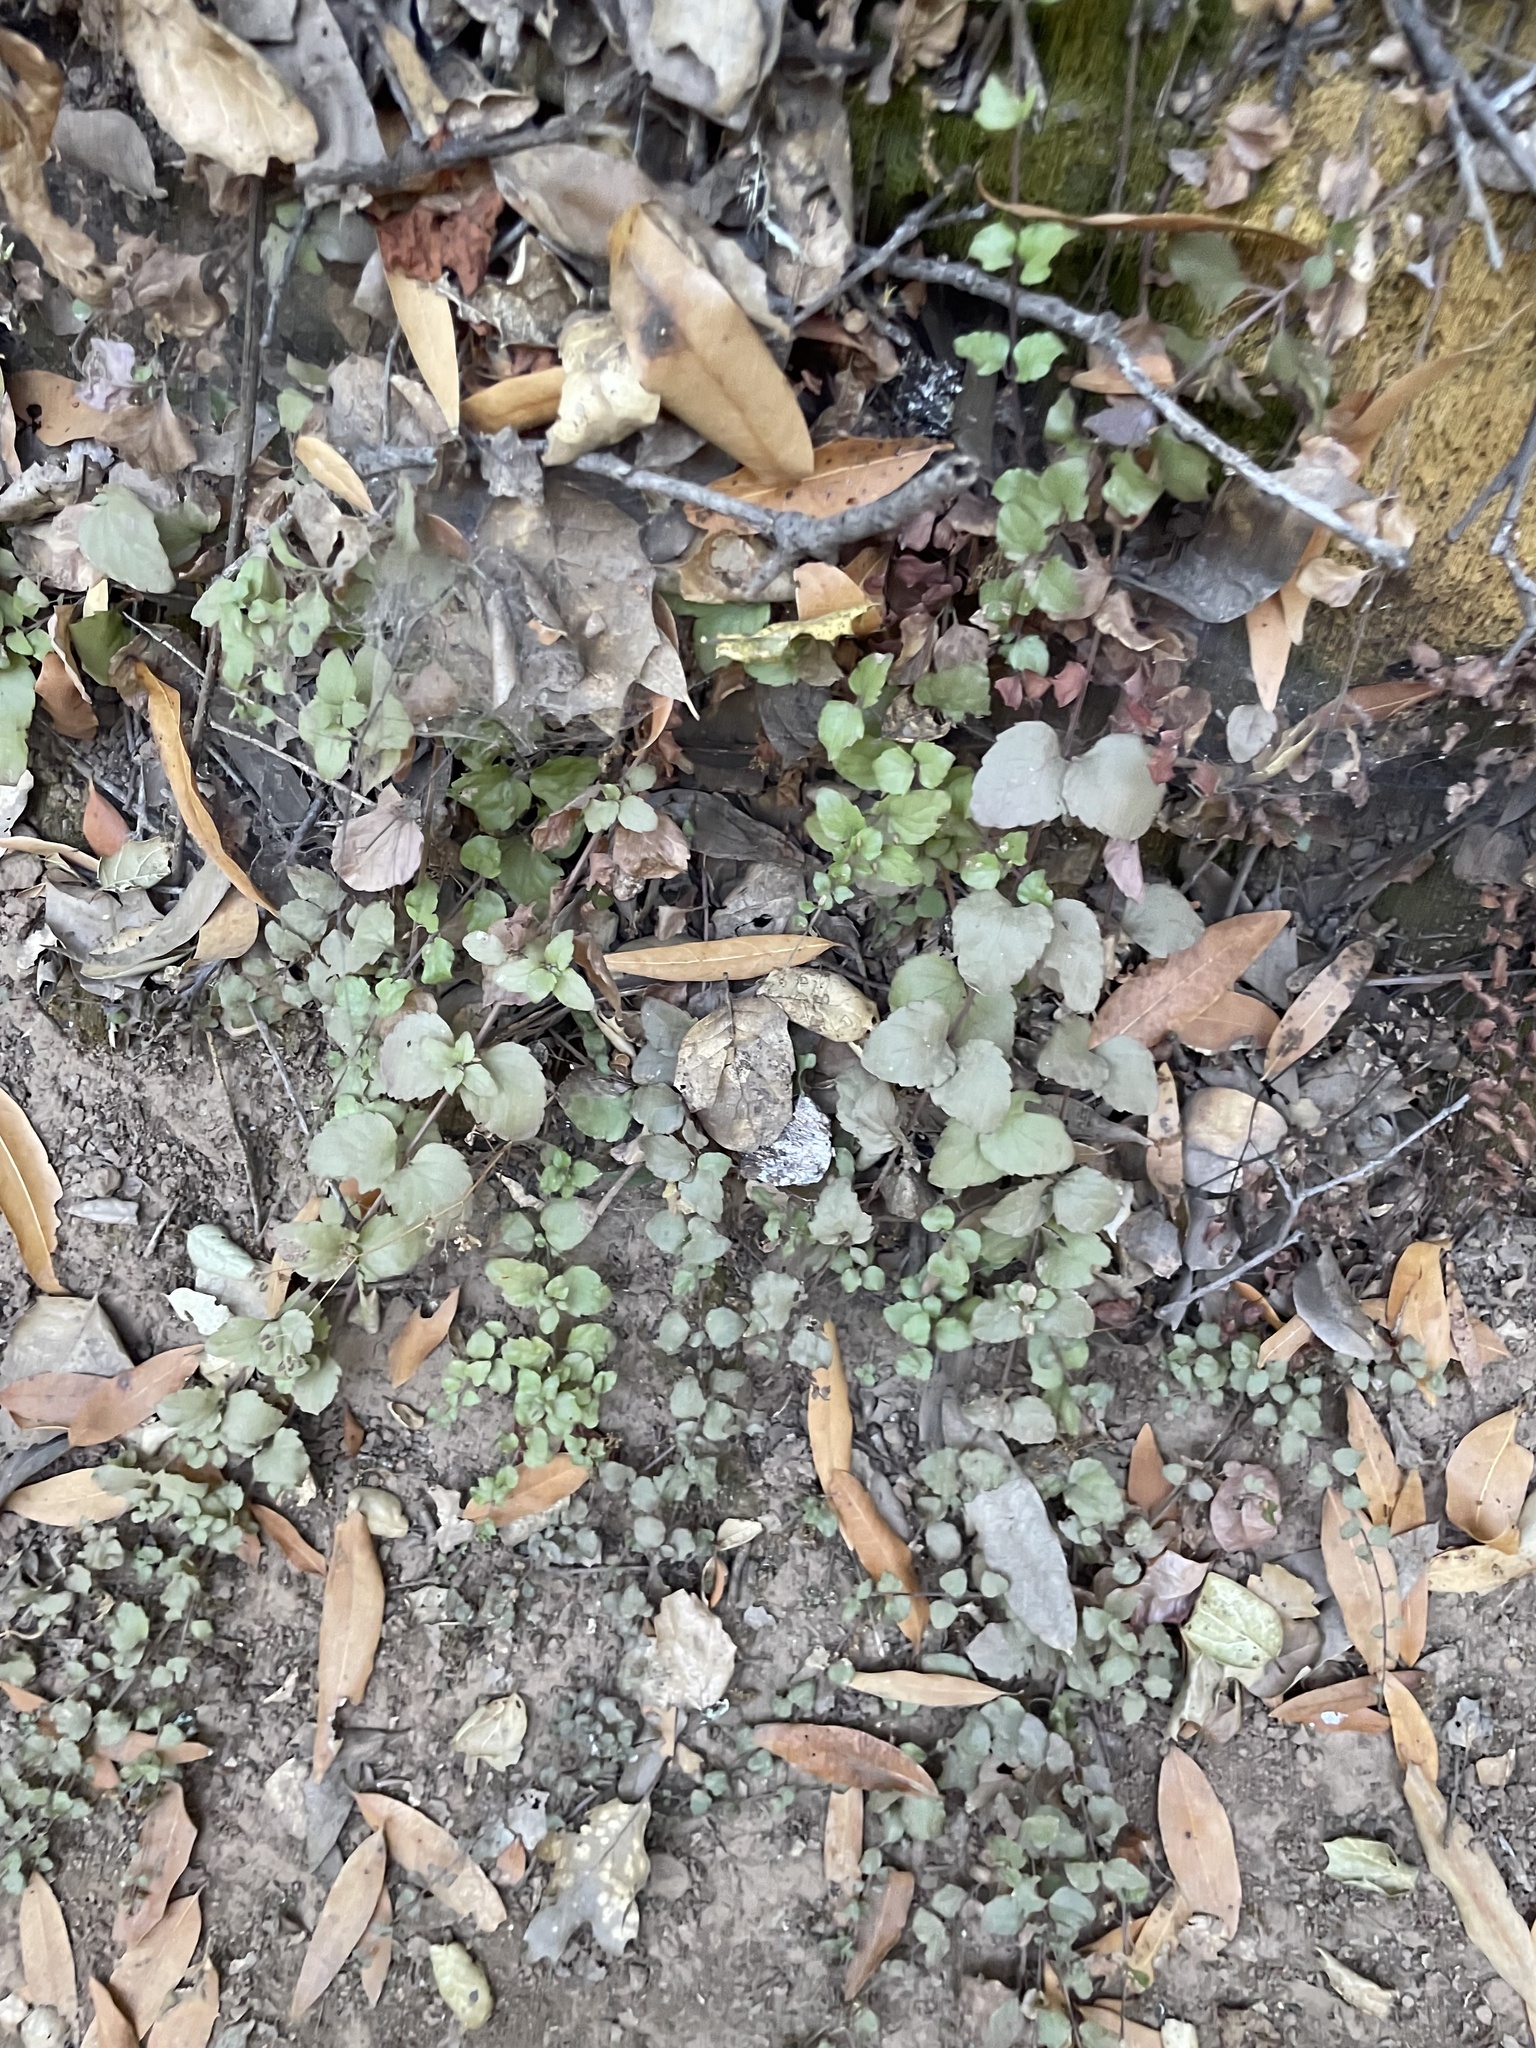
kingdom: Plantae
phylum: Tracheophyta
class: Magnoliopsida
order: Lamiales
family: Lamiaceae
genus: Micromeria
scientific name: Micromeria douglasii
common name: Yerba buena
